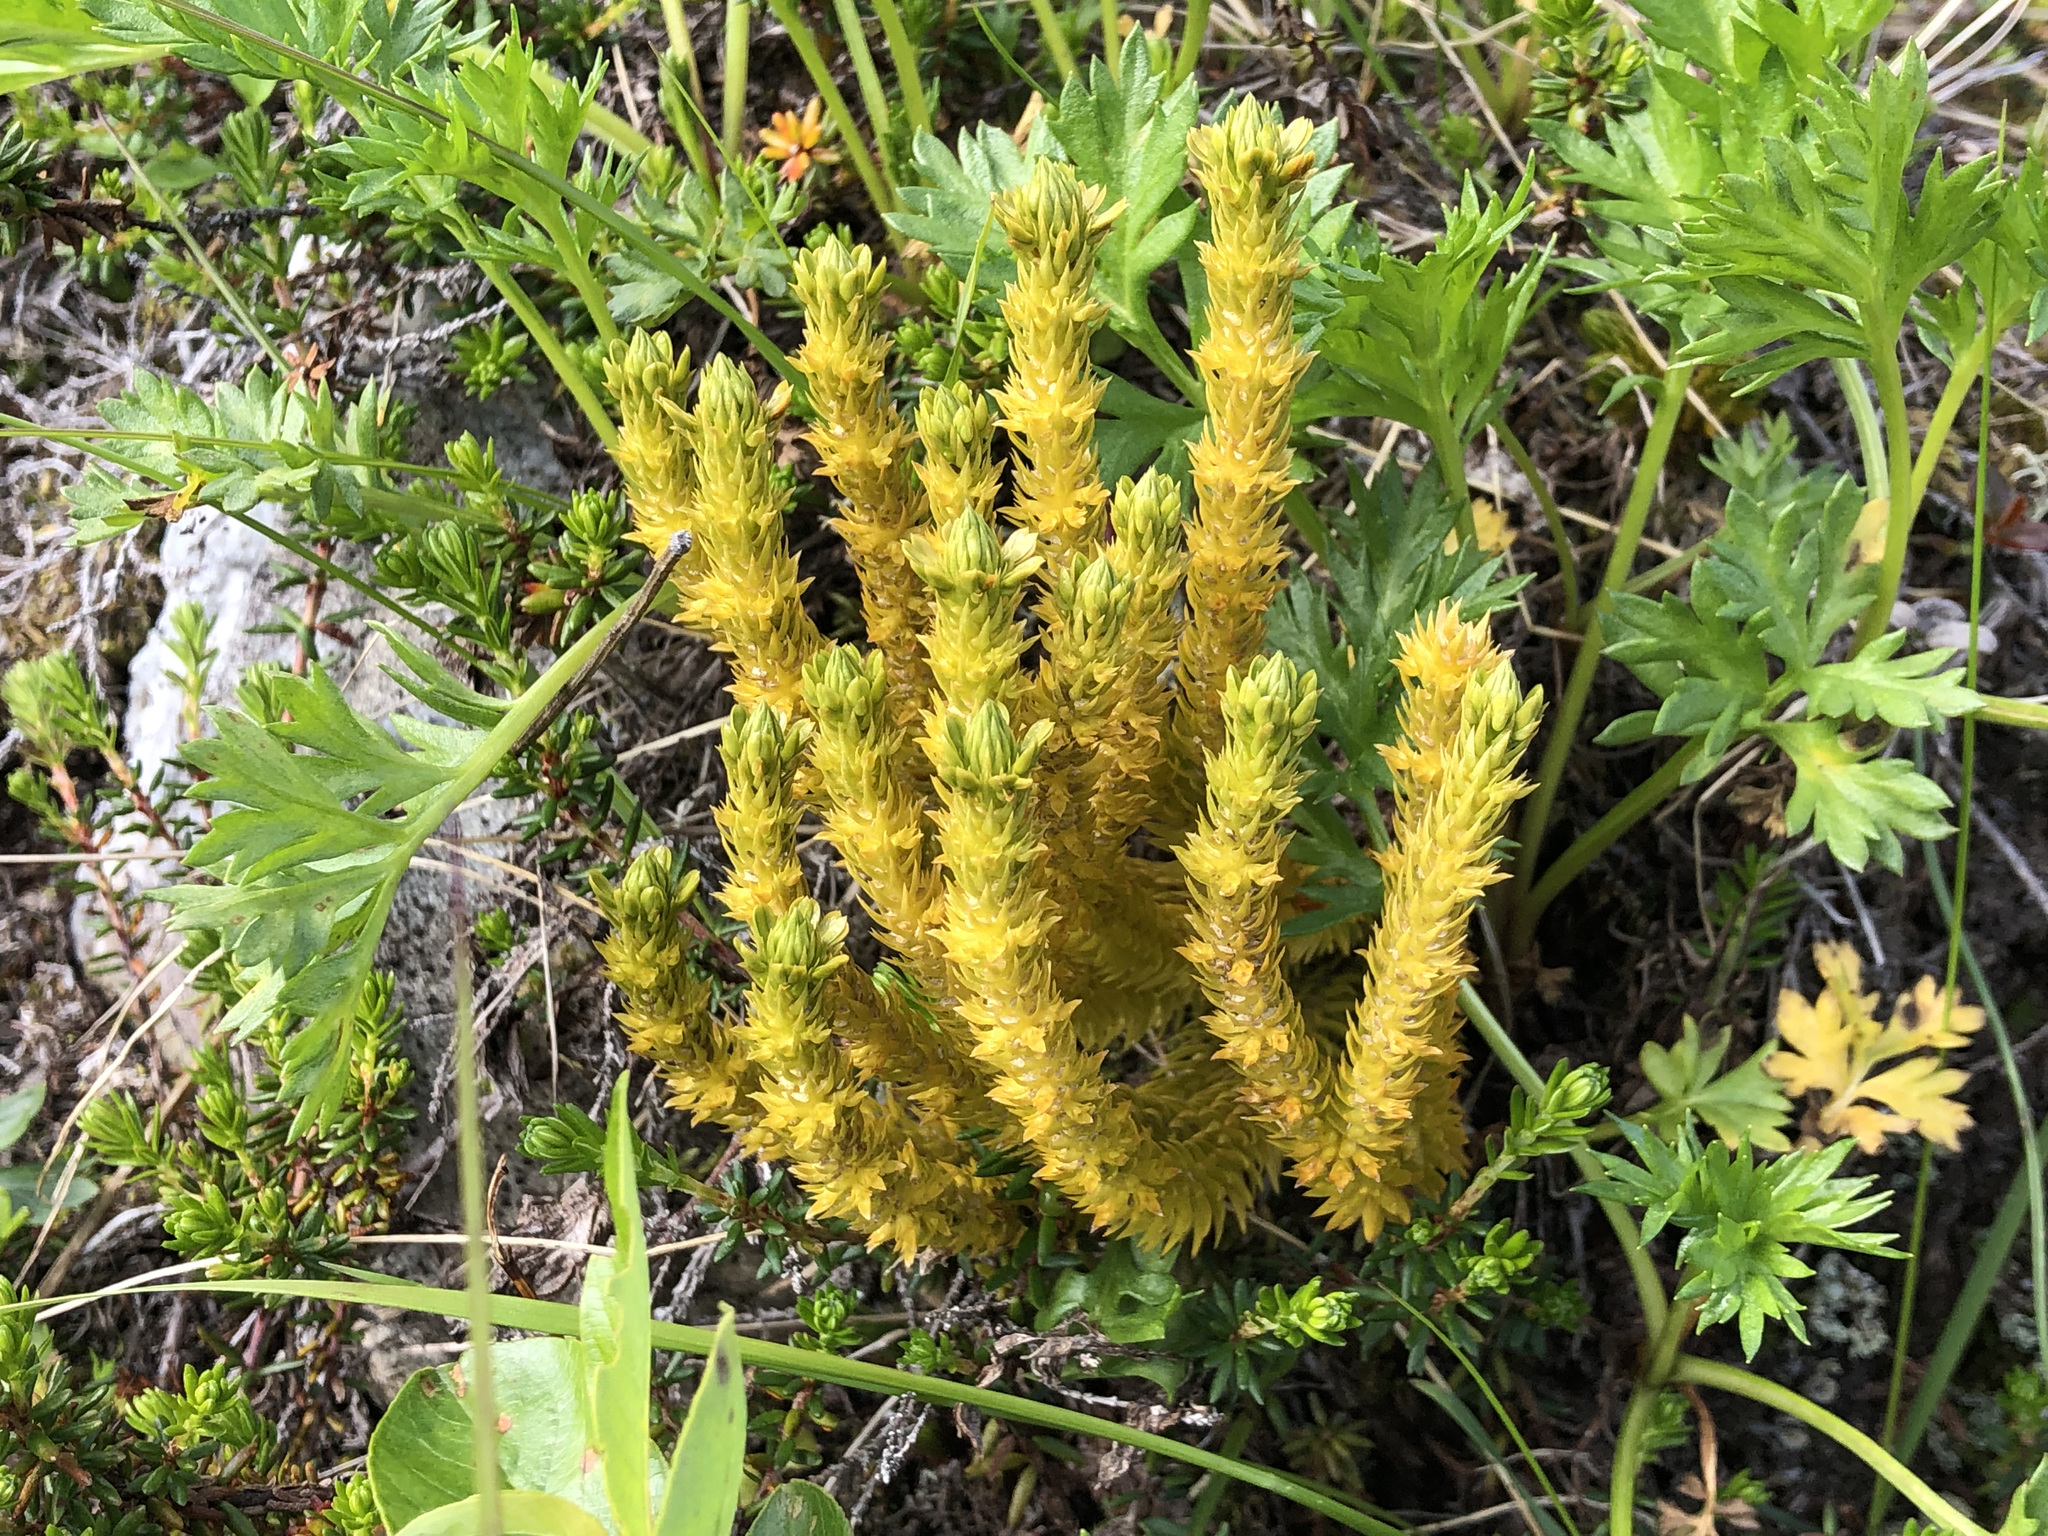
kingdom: Plantae
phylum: Tracheophyta
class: Lycopodiopsida
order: Lycopodiales
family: Lycopodiaceae
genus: Huperzia
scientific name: Huperzia continentalis
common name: Continental firmoss
